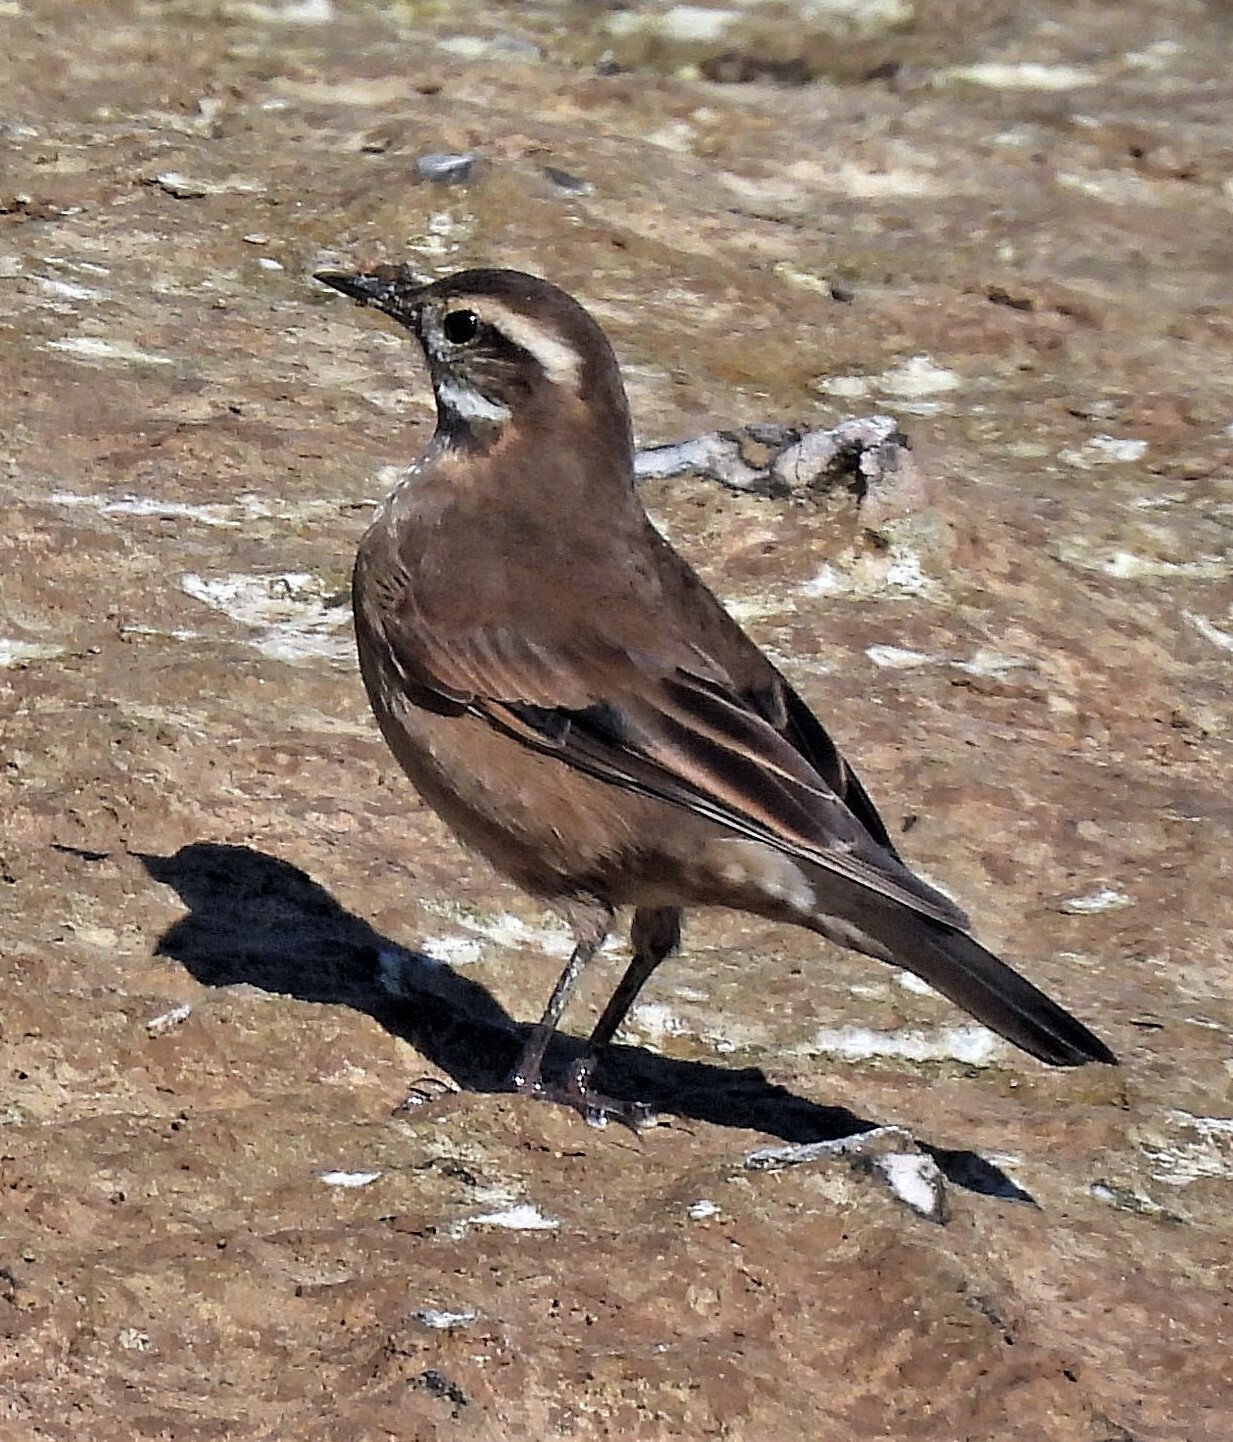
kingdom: Animalia
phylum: Chordata
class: Aves
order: Passeriformes
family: Furnariidae
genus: Cinclodes
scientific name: Cinclodes fuscus
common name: Buff-winged cinclodes
